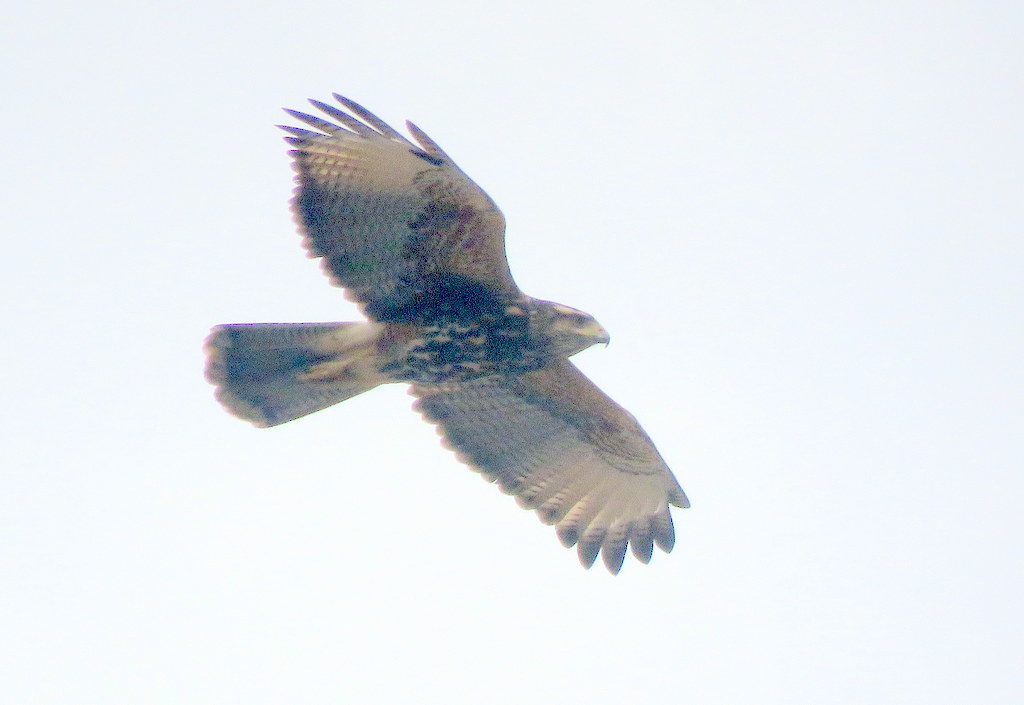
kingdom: Animalia
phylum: Chordata
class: Aves
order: Accipitriformes
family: Accipitridae
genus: Parabuteo
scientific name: Parabuteo unicinctus
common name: Harris's hawk
